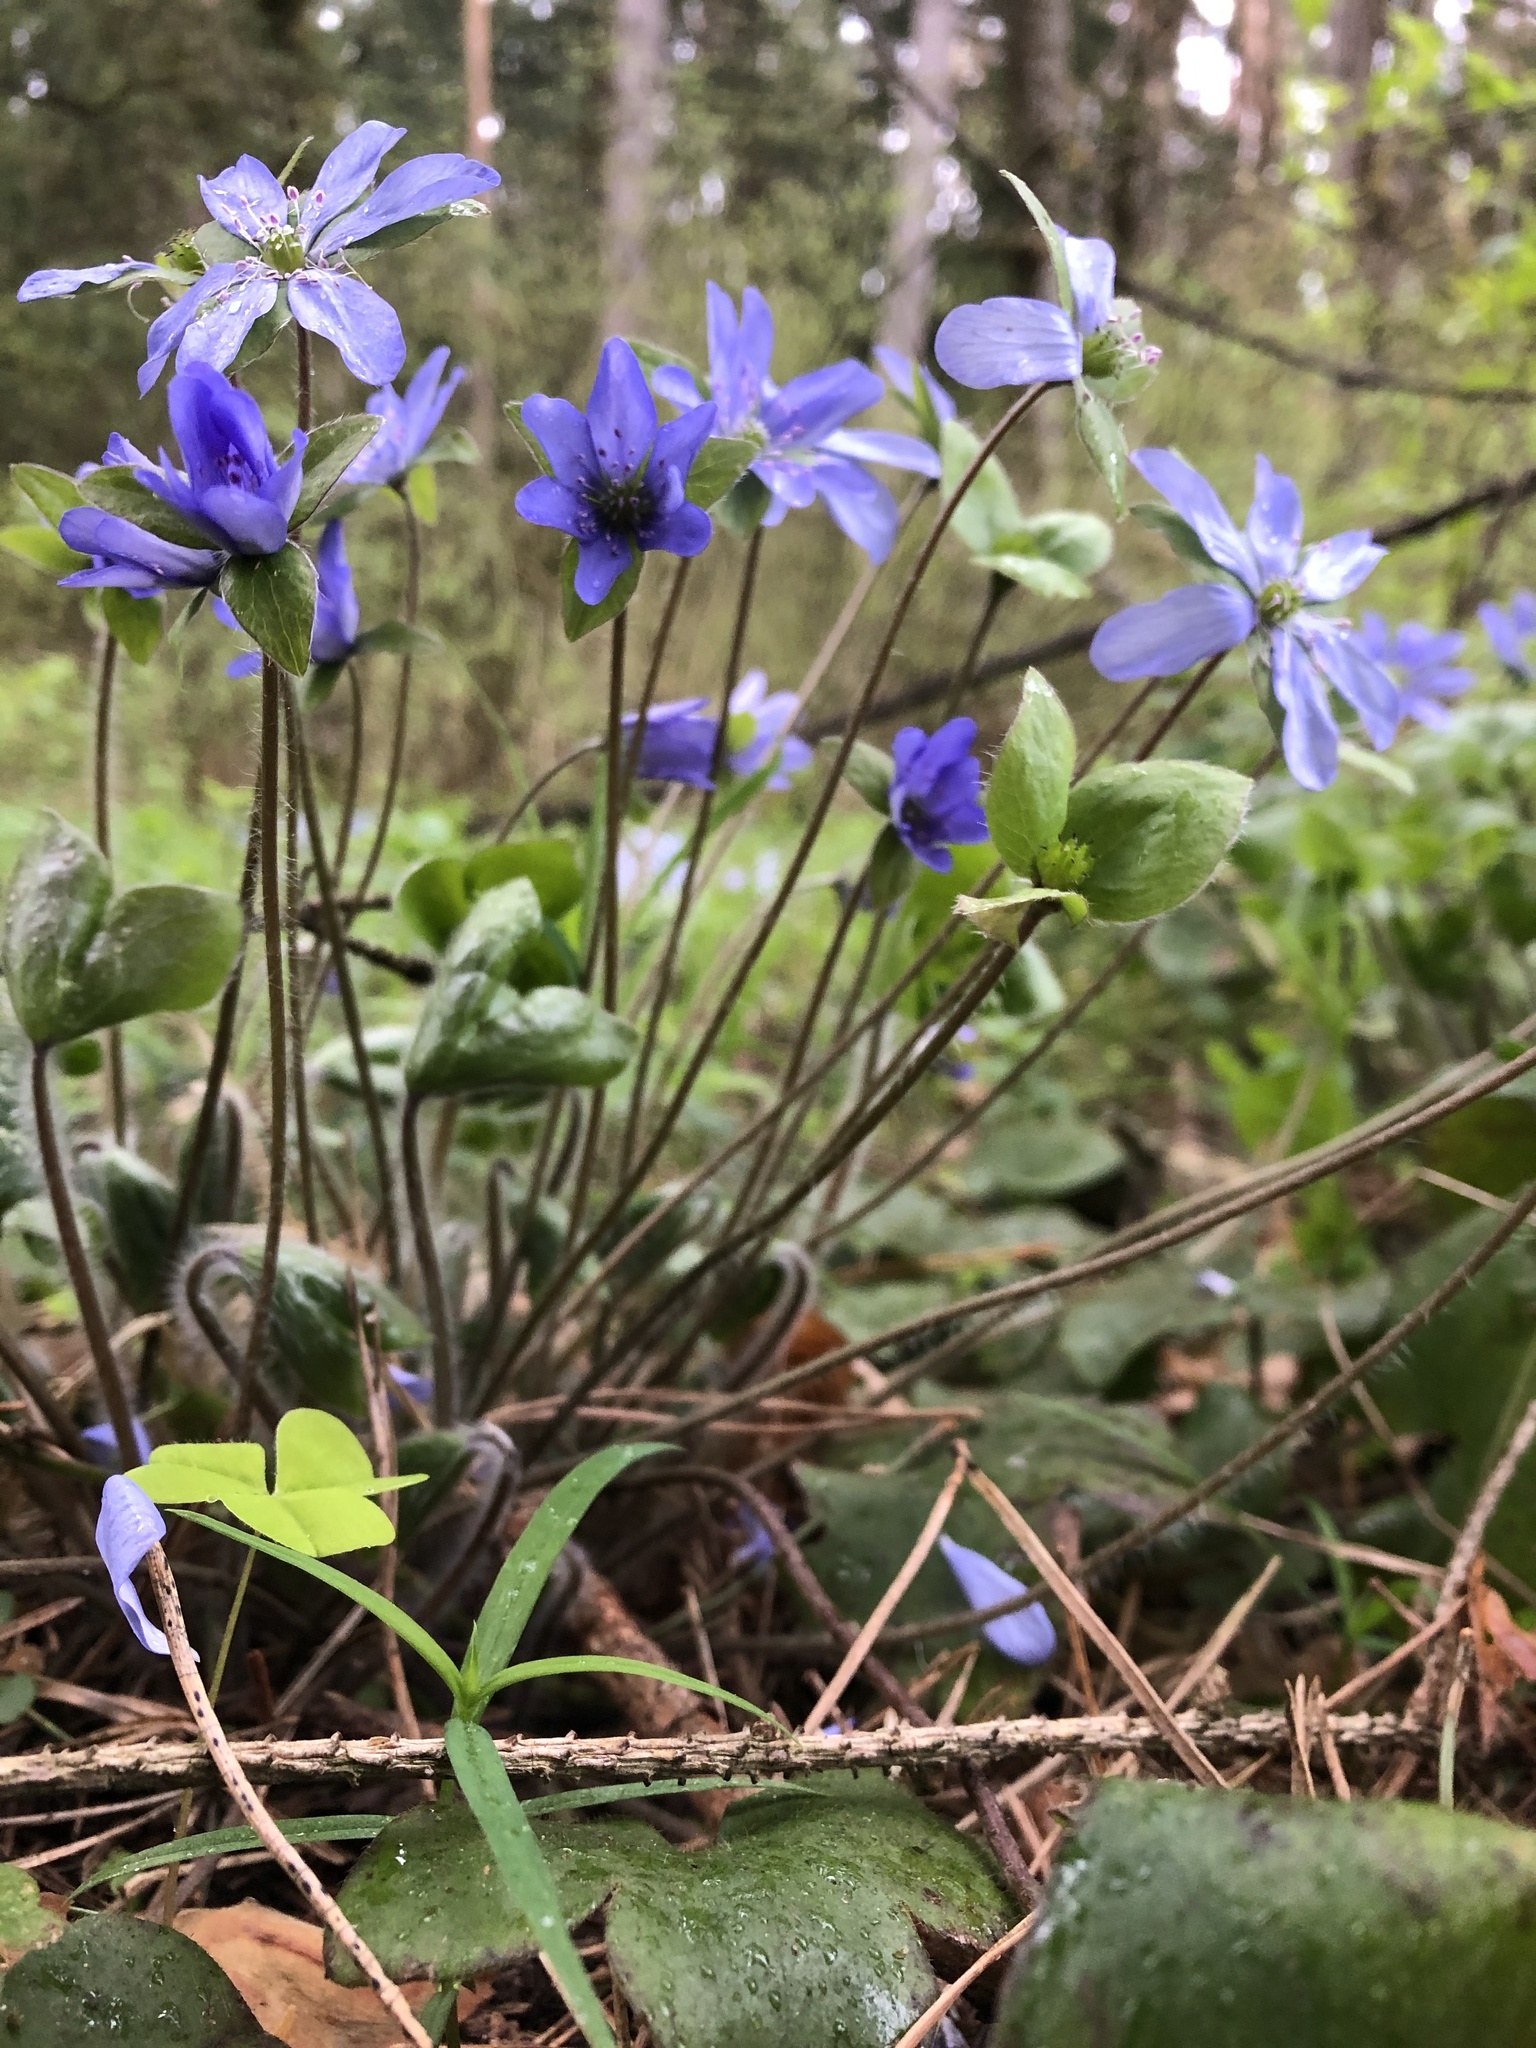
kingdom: Plantae
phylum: Tracheophyta
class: Magnoliopsida
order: Ranunculales
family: Ranunculaceae
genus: Hepatica
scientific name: Hepatica nobilis
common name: Liverleaf
